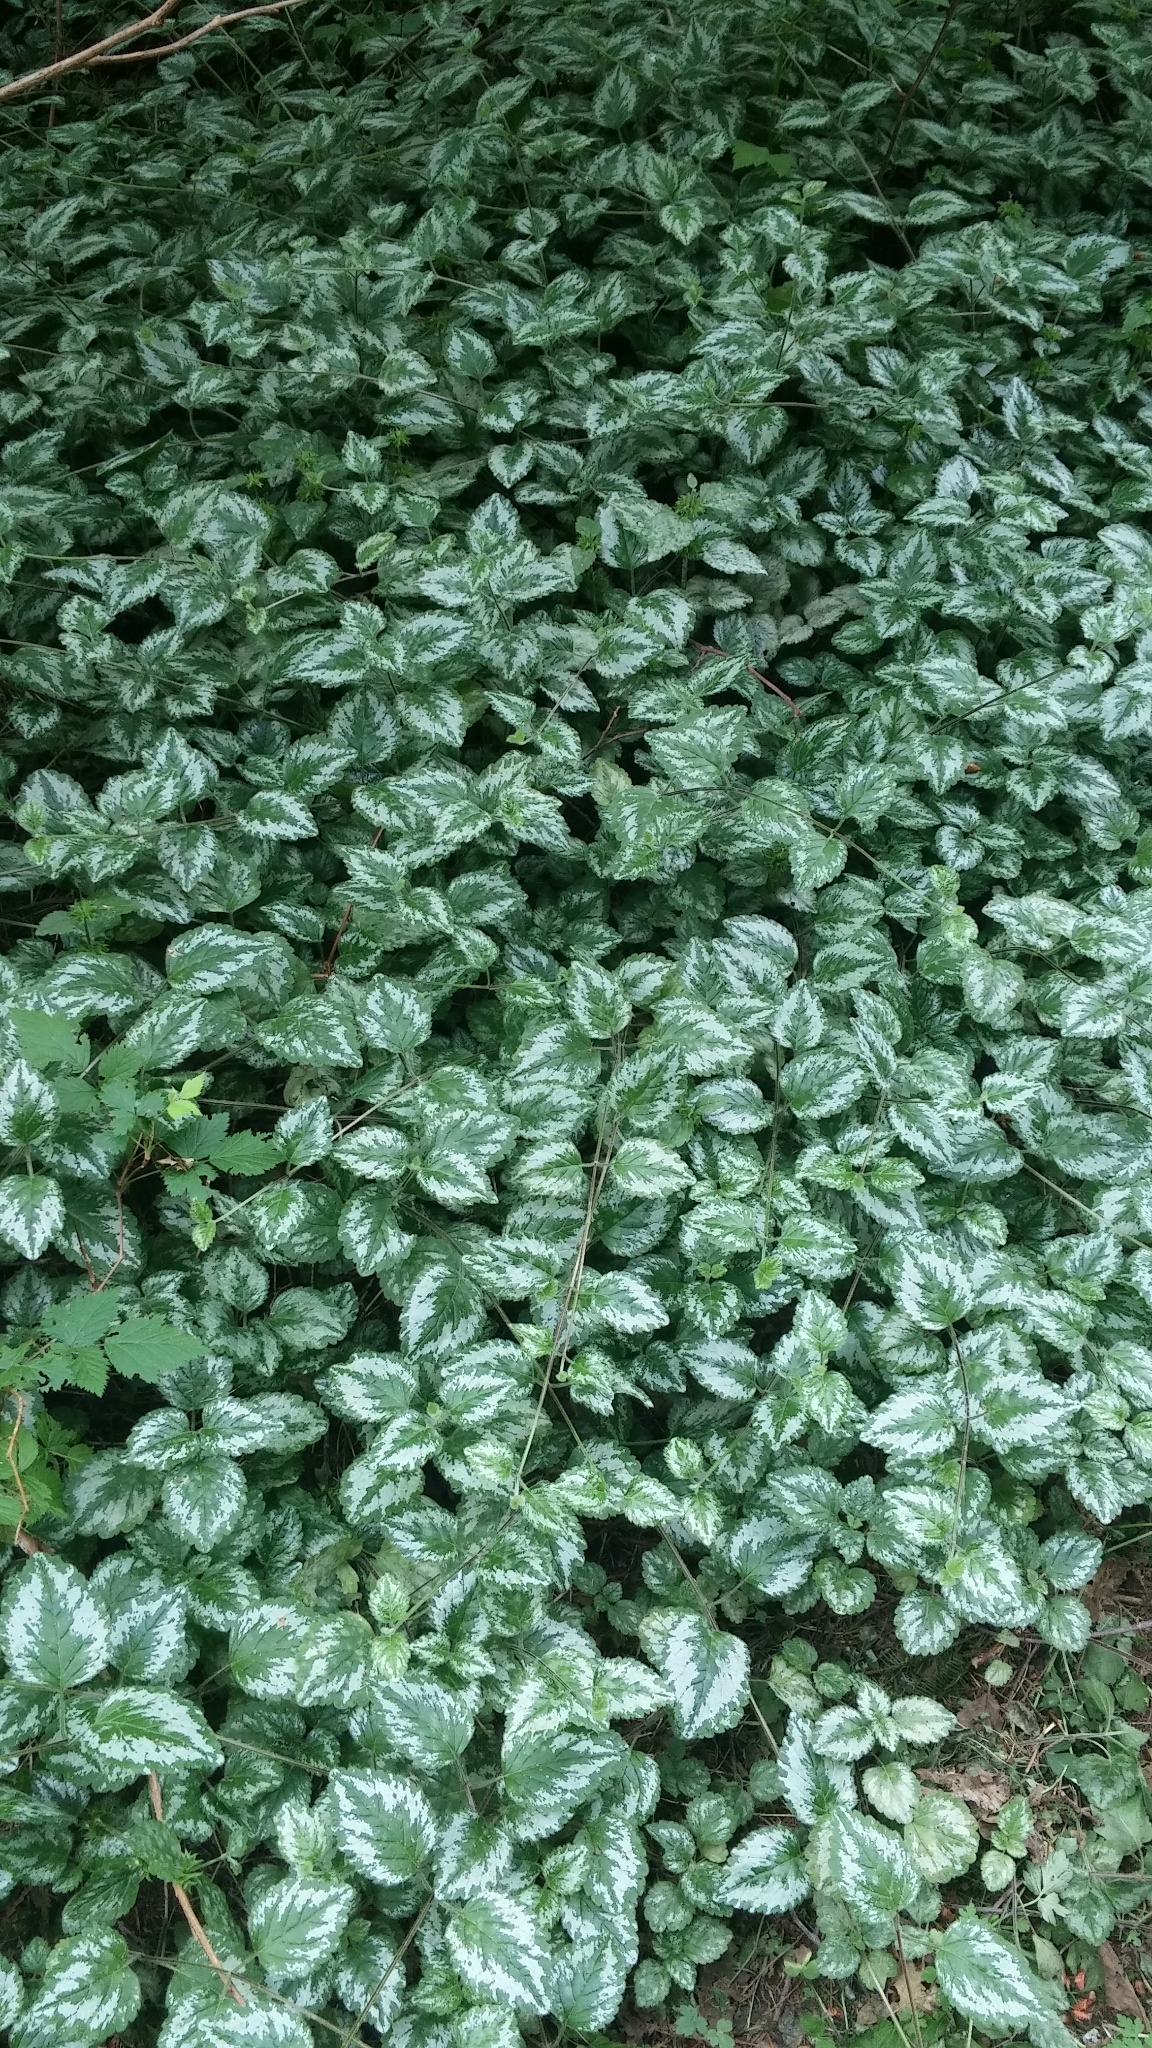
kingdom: Plantae
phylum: Tracheophyta
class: Magnoliopsida
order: Lamiales
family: Lamiaceae
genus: Lamium
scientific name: Lamium galeobdolon
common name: Yellow archangel
